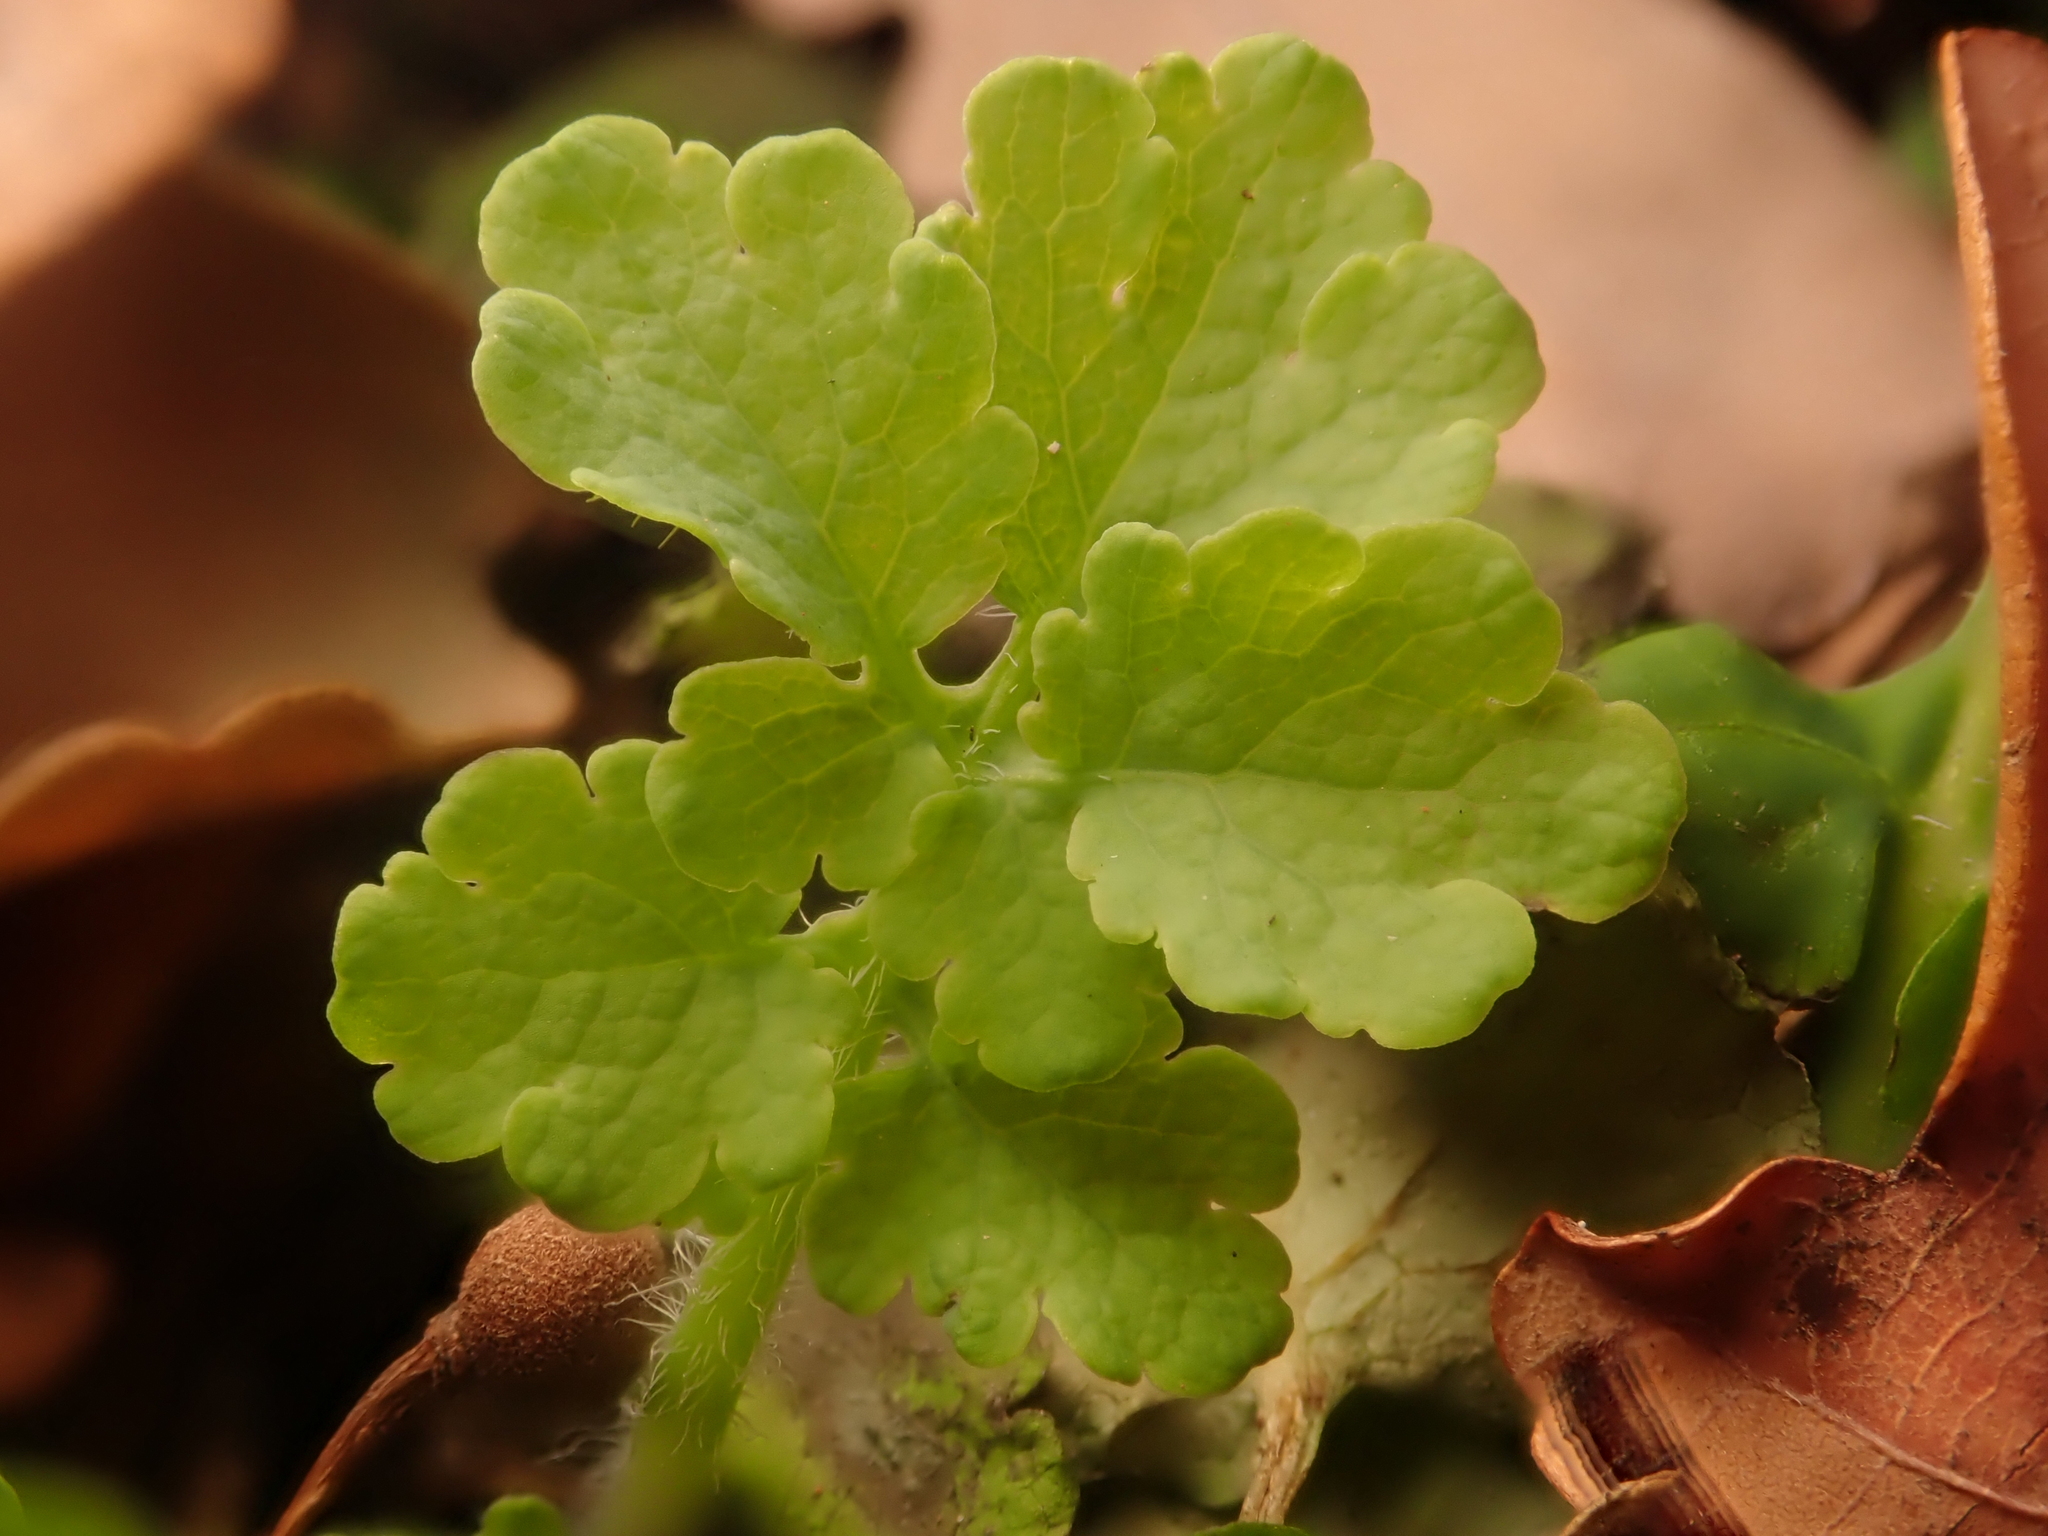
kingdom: Plantae
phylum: Tracheophyta
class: Magnoliopsida
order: Ranunculales
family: Papaveraceae
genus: Chelidonium
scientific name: Chelidonium majus
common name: Greater celandine
